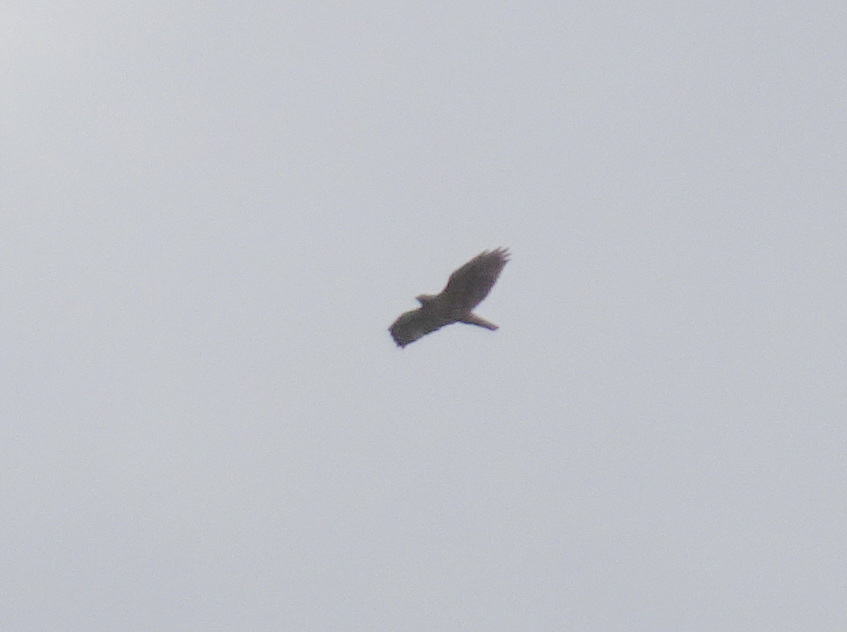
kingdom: Animalia
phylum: Chordata
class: Aves
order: Accipitriformes
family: Accipitridae
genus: Buteo
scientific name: Buteo jamaicensis
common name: Red-tailed hawk
